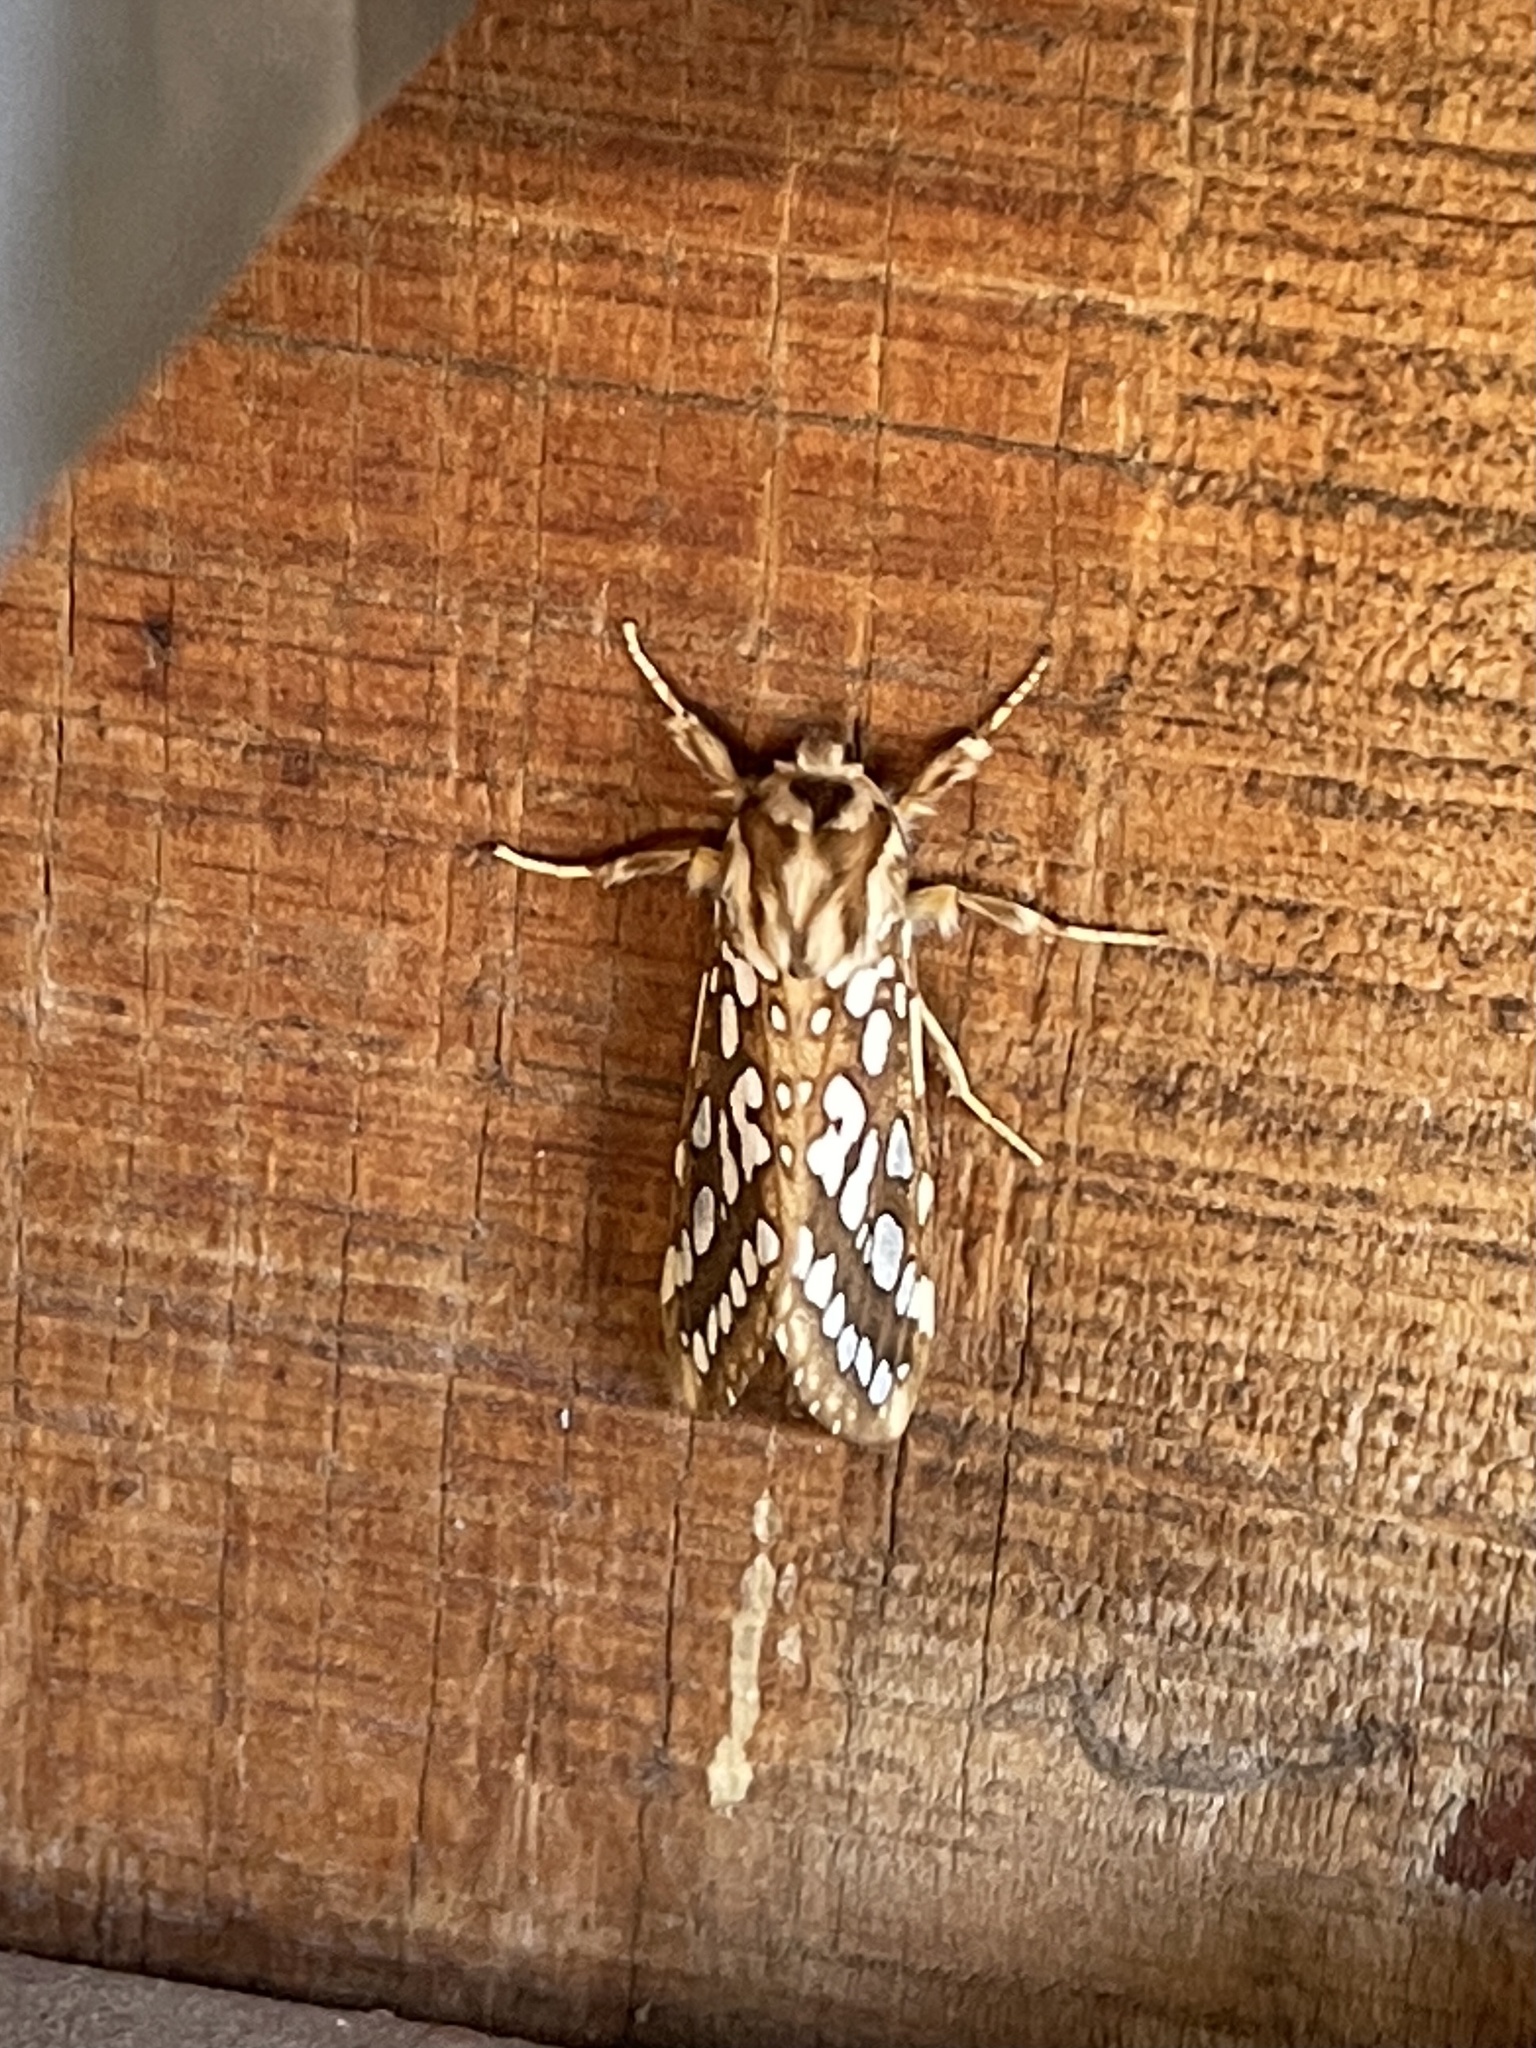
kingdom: Animalia
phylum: Arthropoda
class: Insecta
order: Lepidoptera
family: Erebidae
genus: Lophocampa
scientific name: Lophocampa argentata
